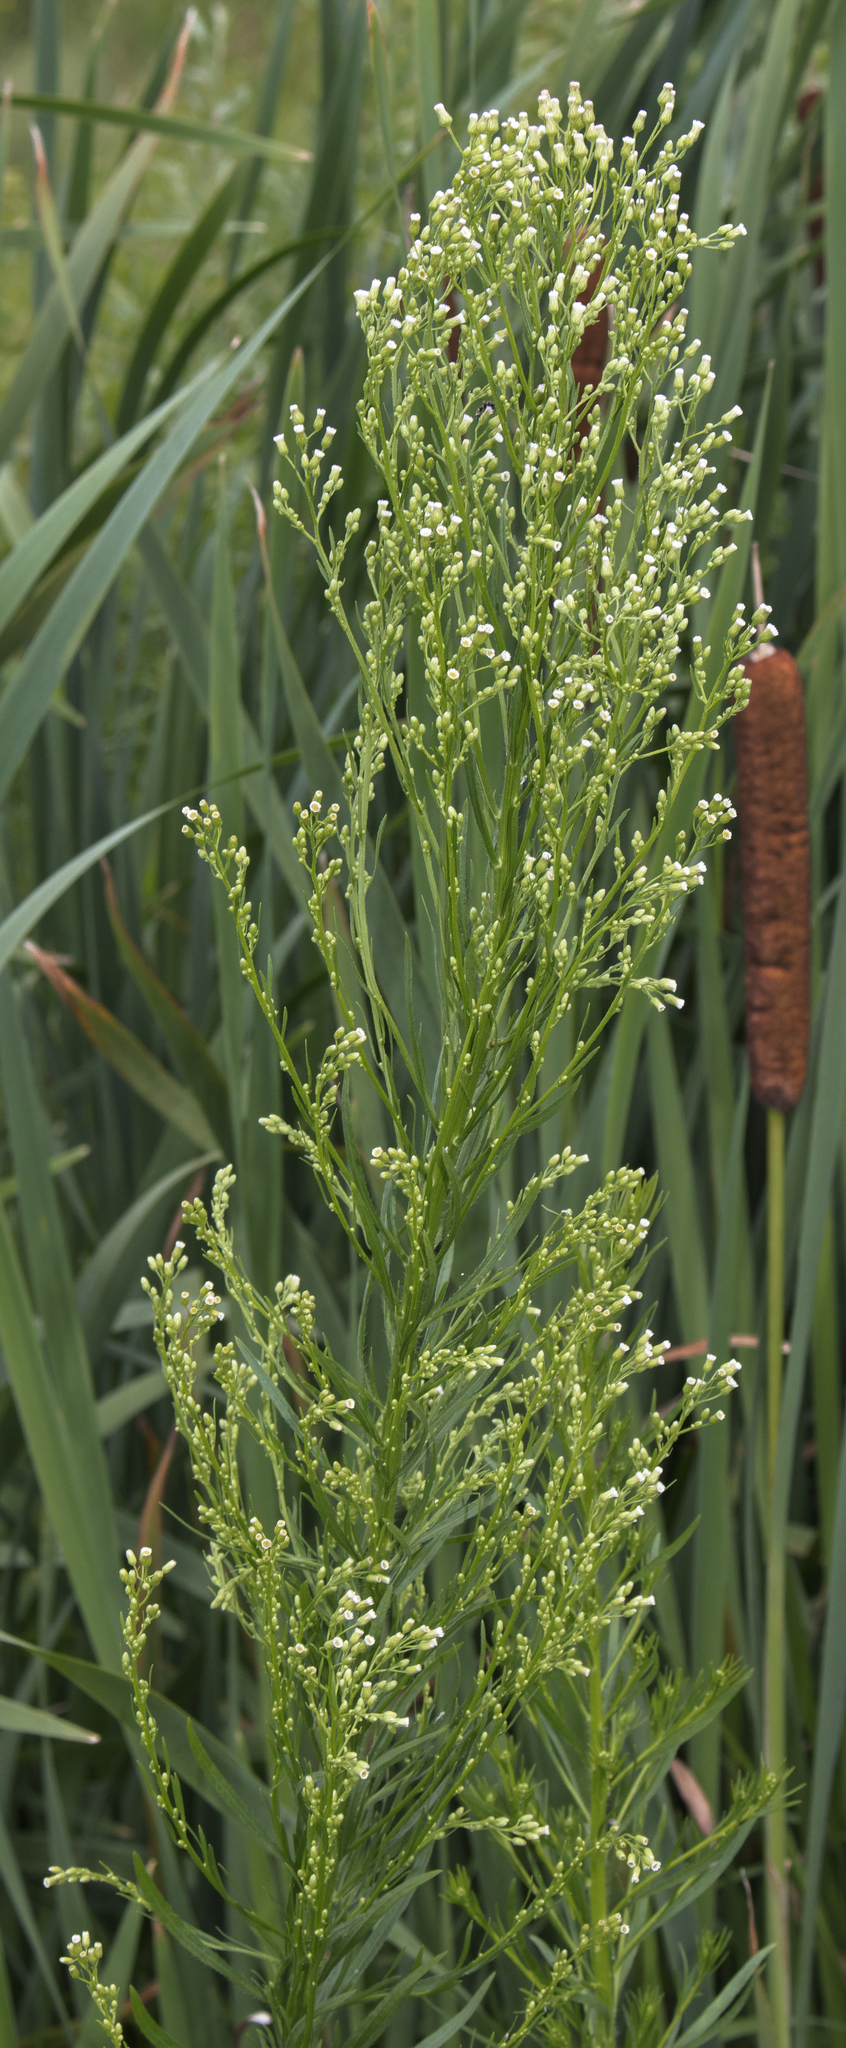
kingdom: Plantae
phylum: Tracheophyta
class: Magnoliopsida
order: Asterales
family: Asteraceae
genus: Erigeron
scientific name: Erigeron canadensis
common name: Canadian fleabane
